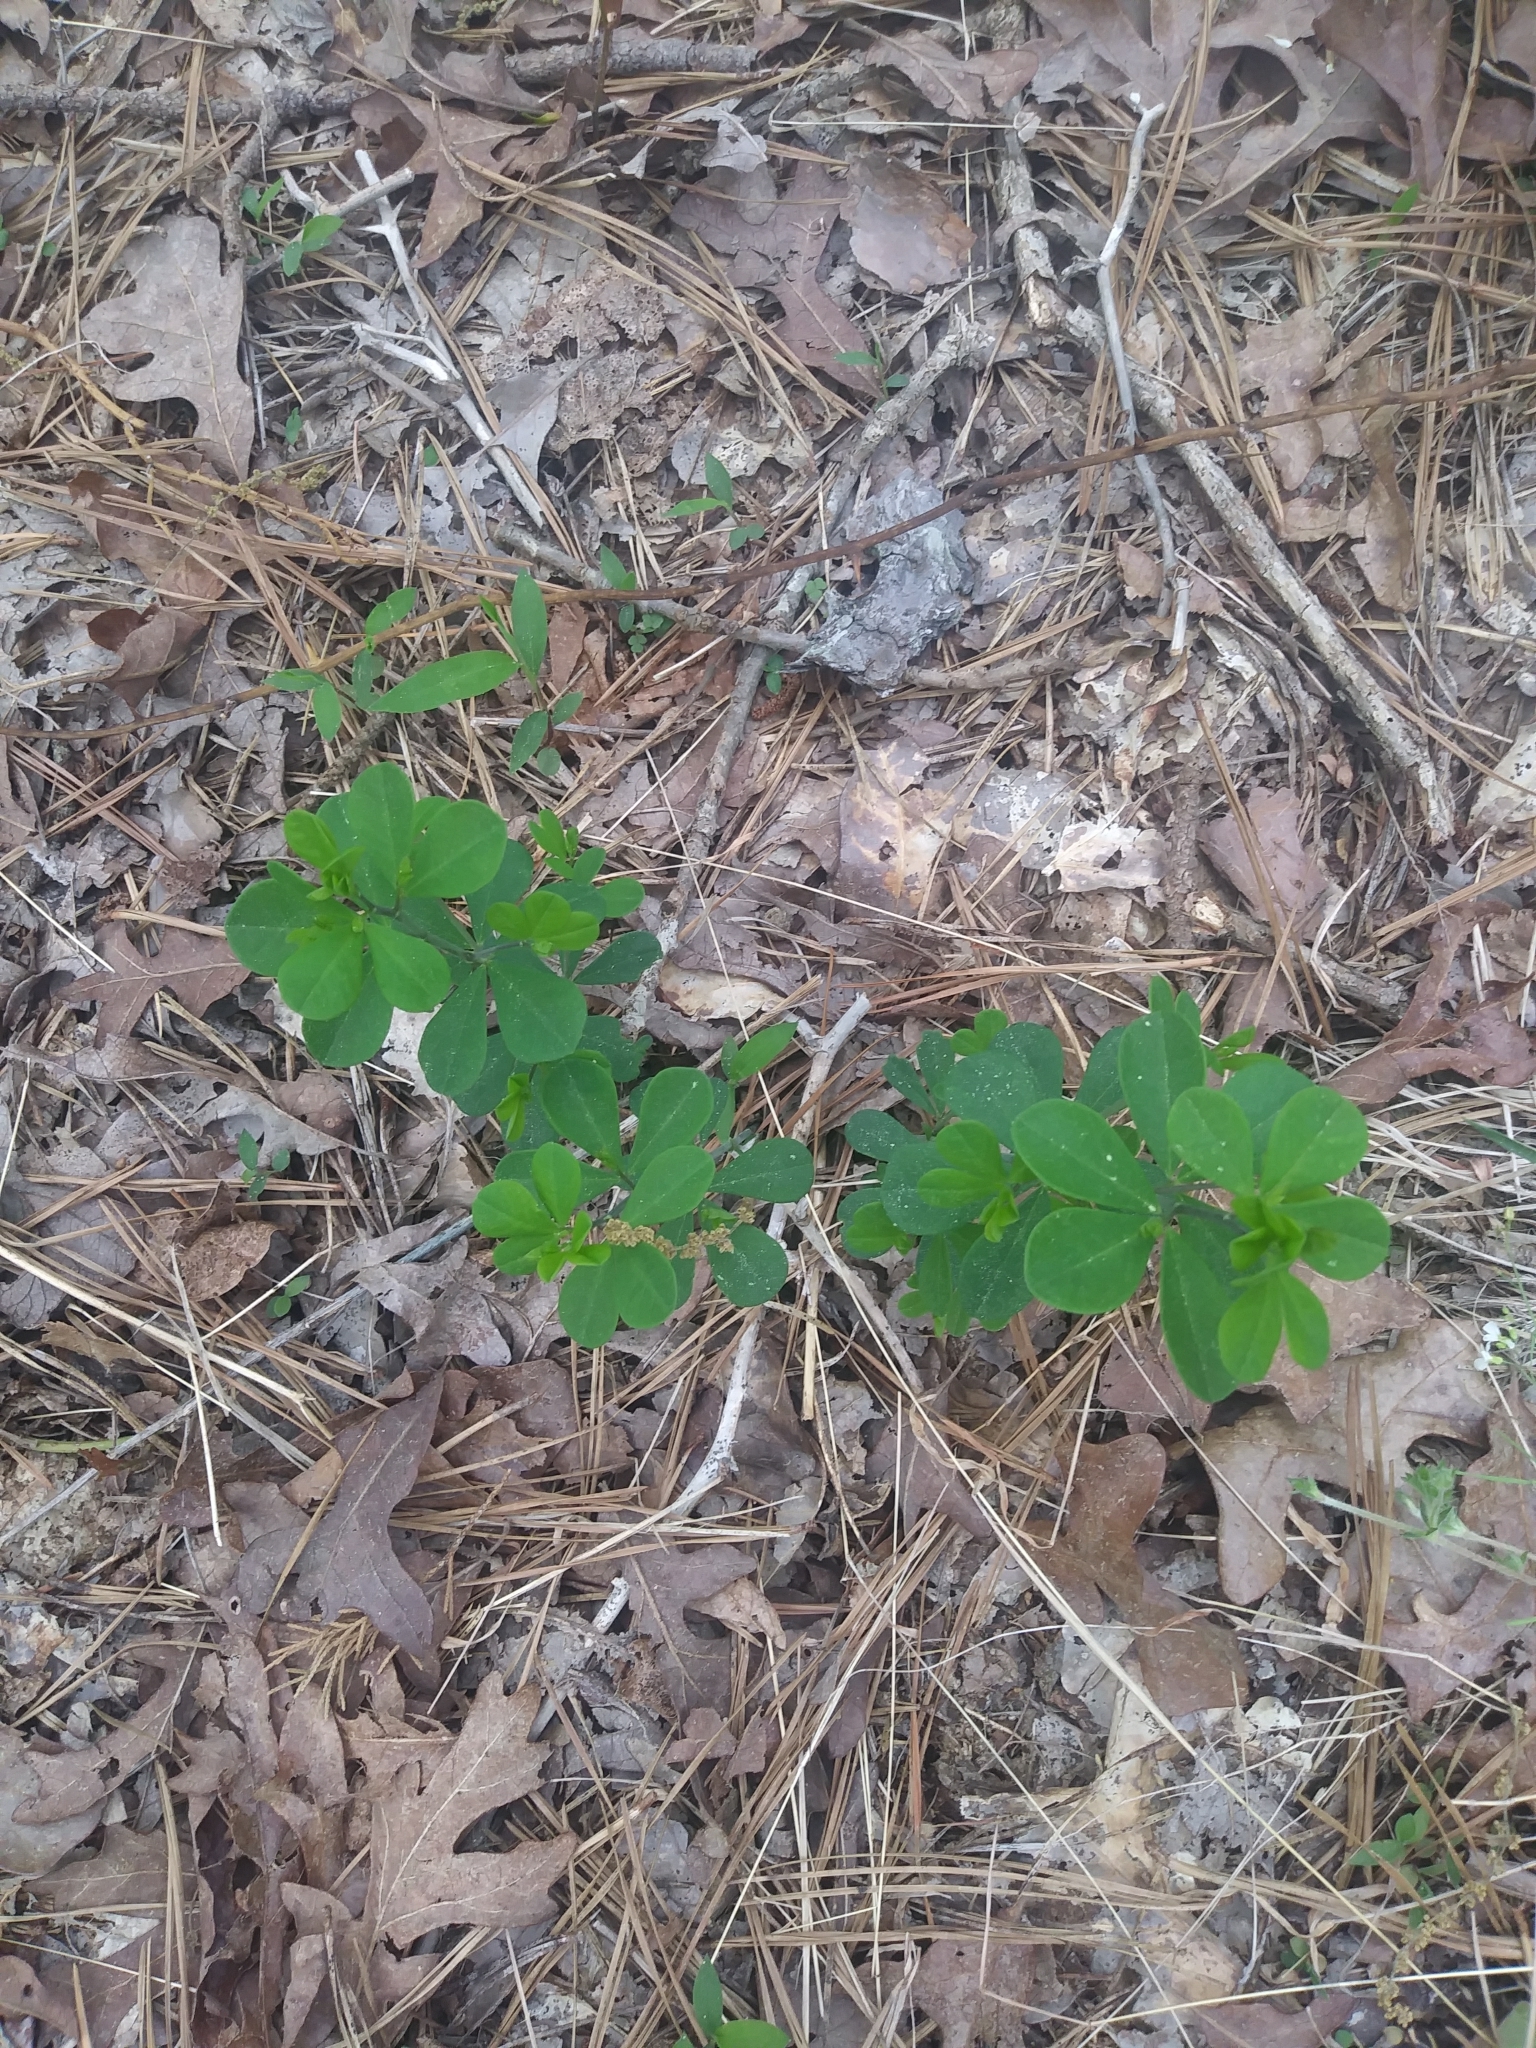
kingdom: Plantae
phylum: Tracheophyta
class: Magnoliopsida
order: Fabales
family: Fabaceae
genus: Baptisia
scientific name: Baptisia tinctoria
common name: Wild indigo
